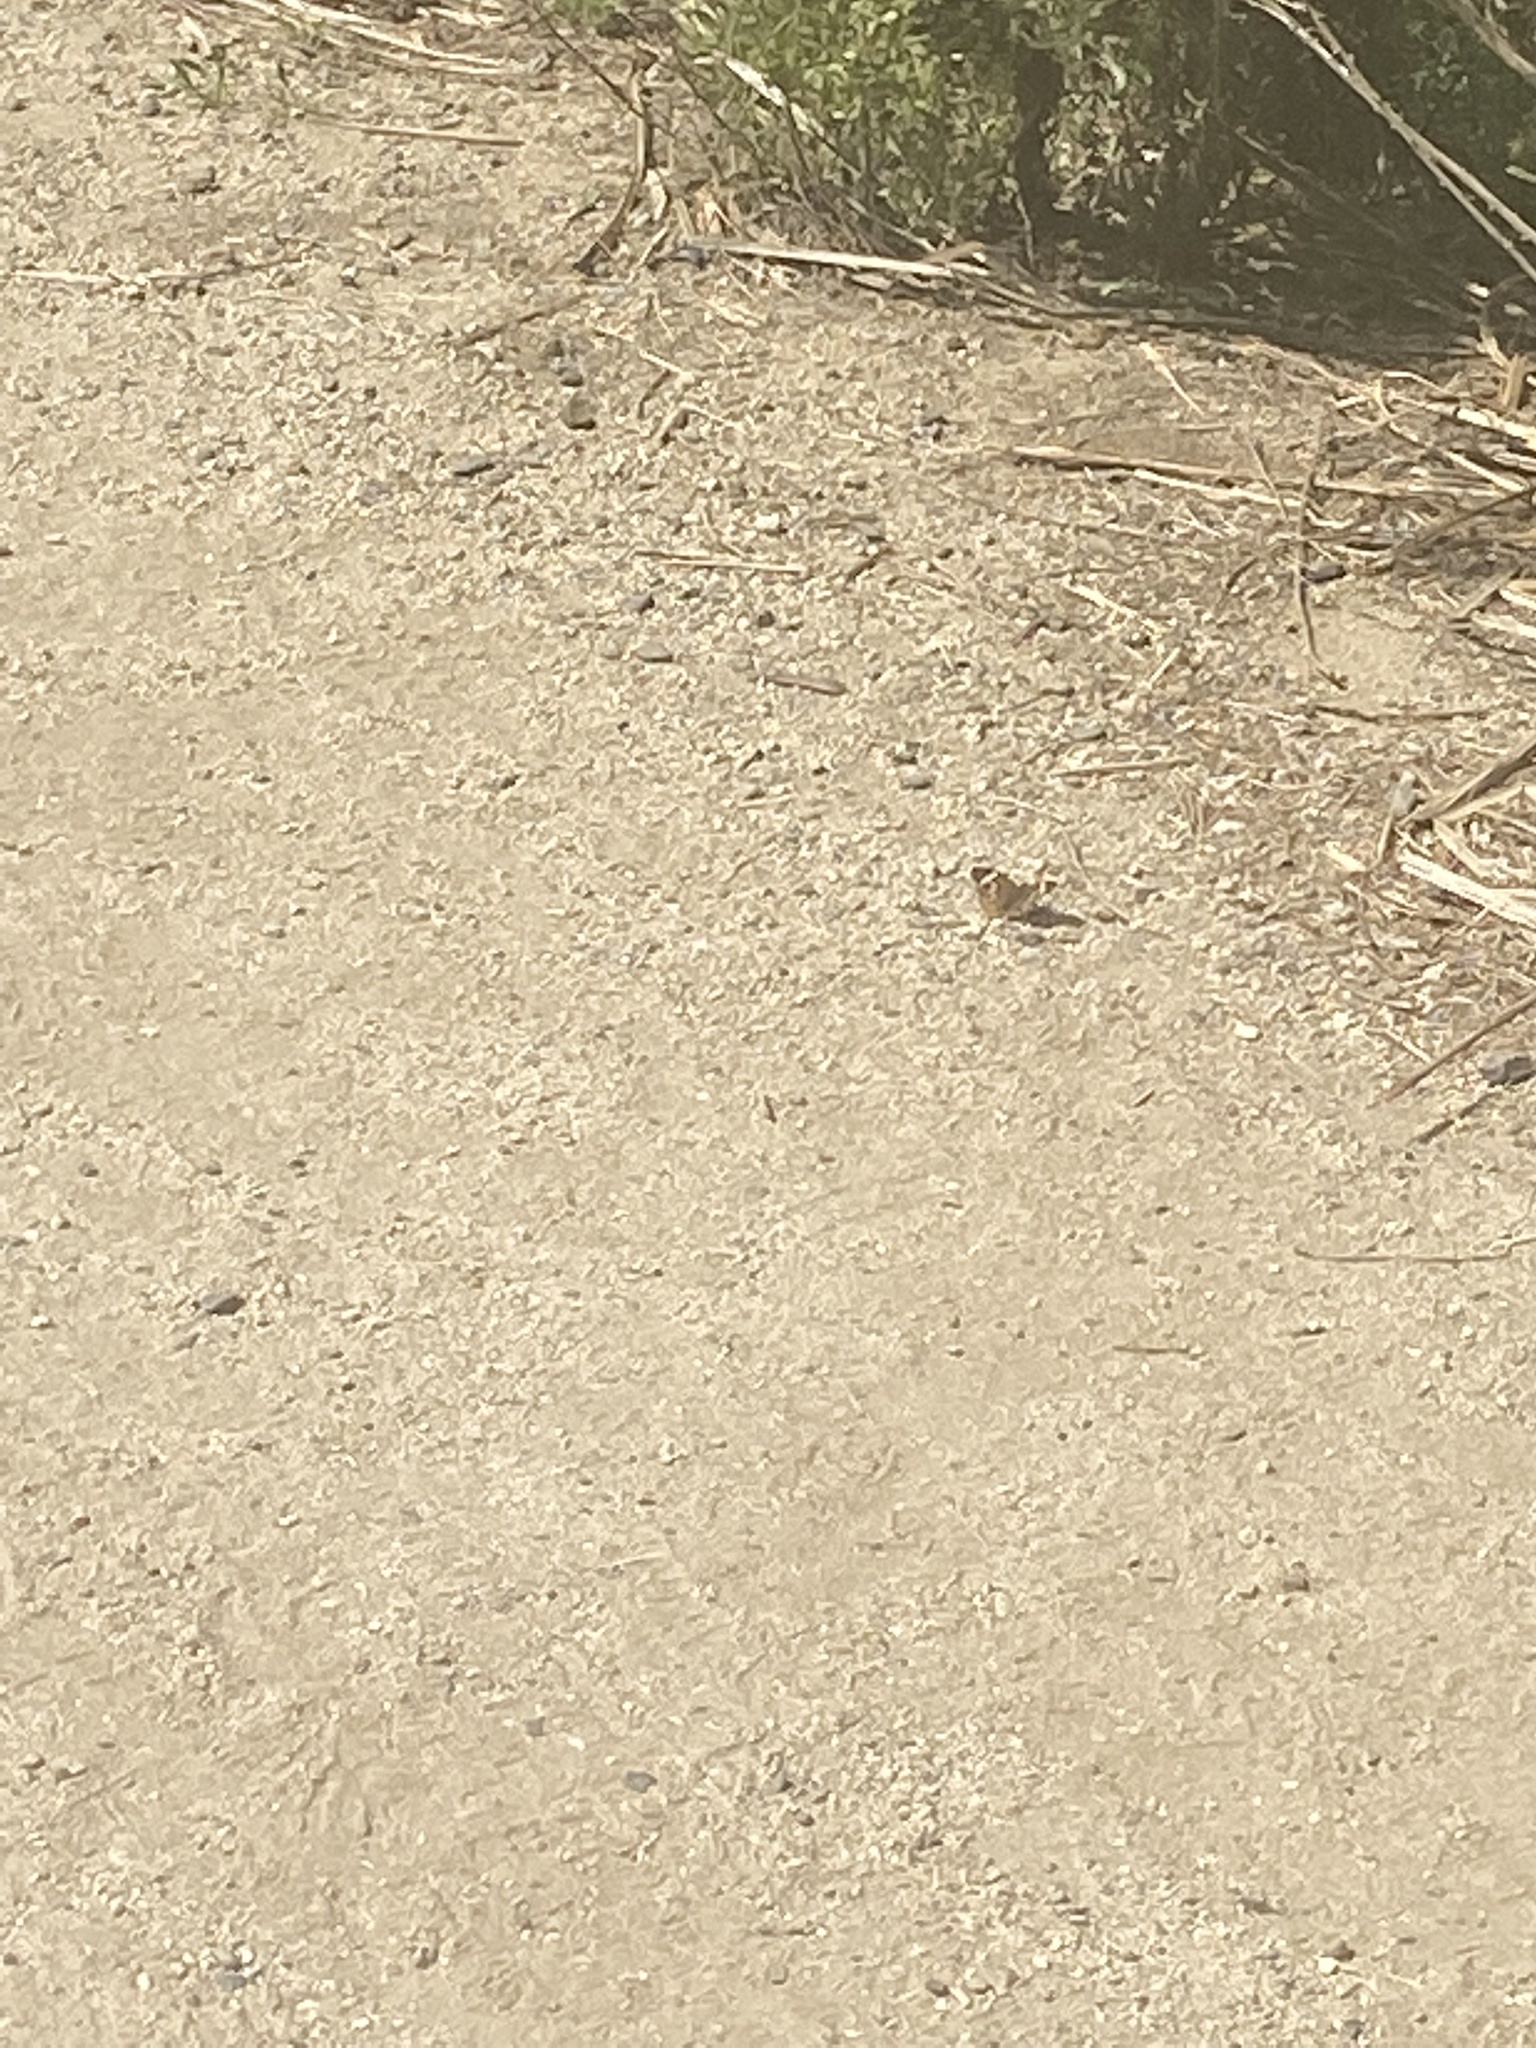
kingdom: Animalia
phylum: Arthropoda
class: Insecta
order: Lepidoptera
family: Nymphalidae
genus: Junonia
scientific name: Junonia grisea
